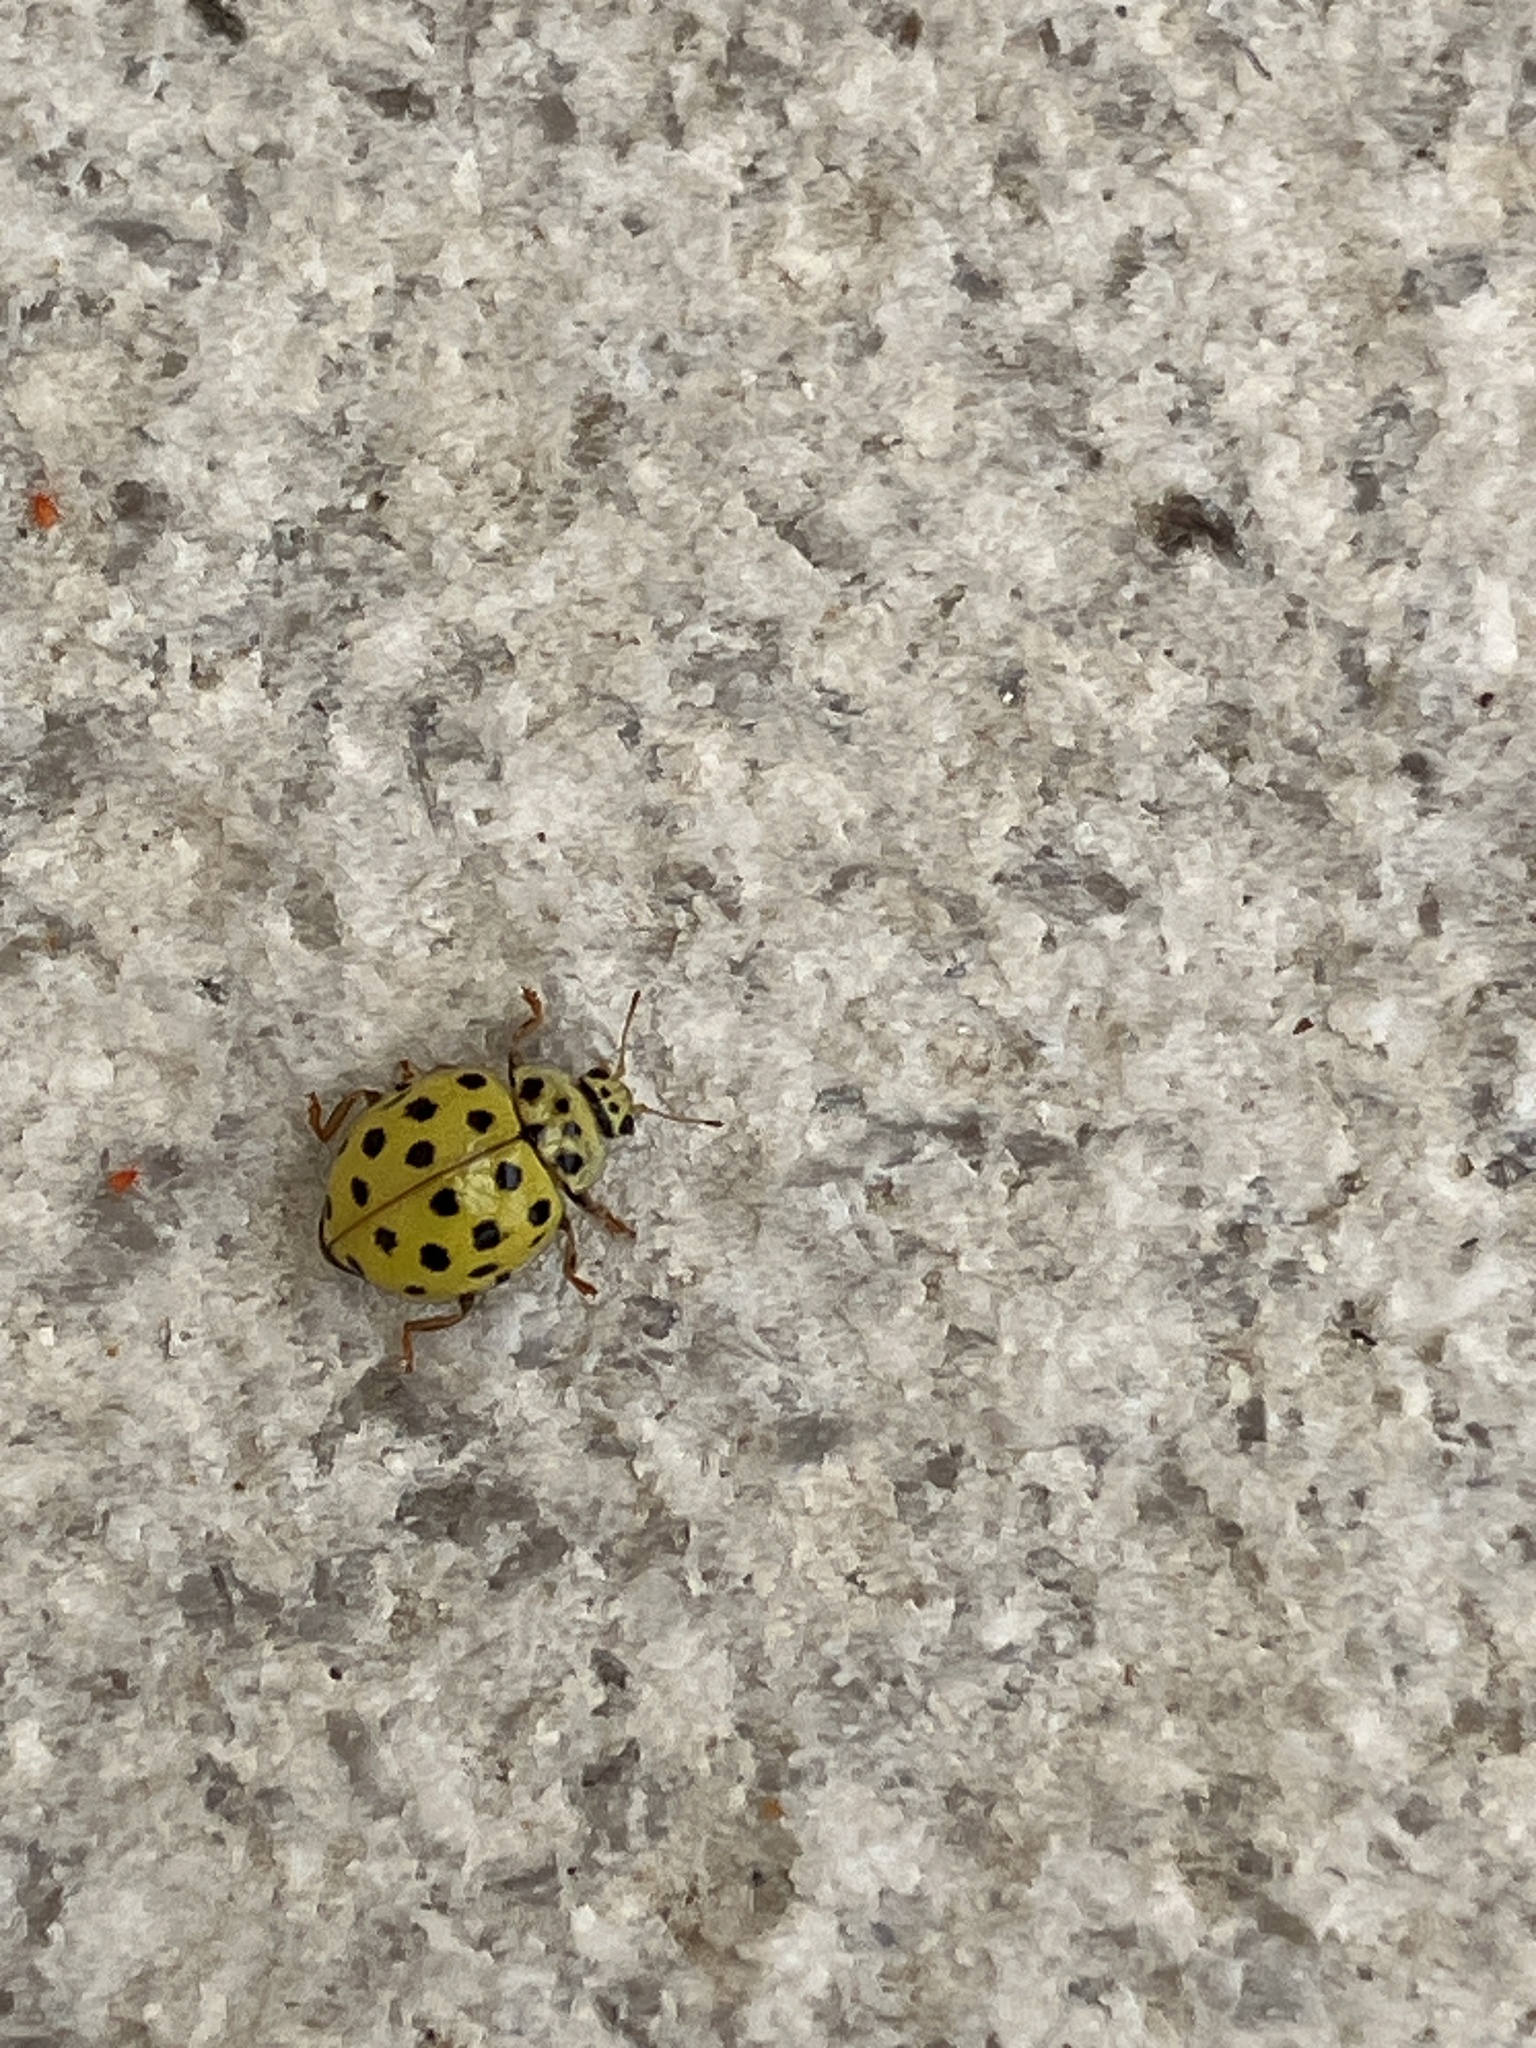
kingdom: Animalia
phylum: Arthropoda
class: Insecta
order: Coleoptera
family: Coccinellidae
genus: Psyllobora
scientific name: Psyllobora vigintiduopunctata
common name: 22-spot ladybird
